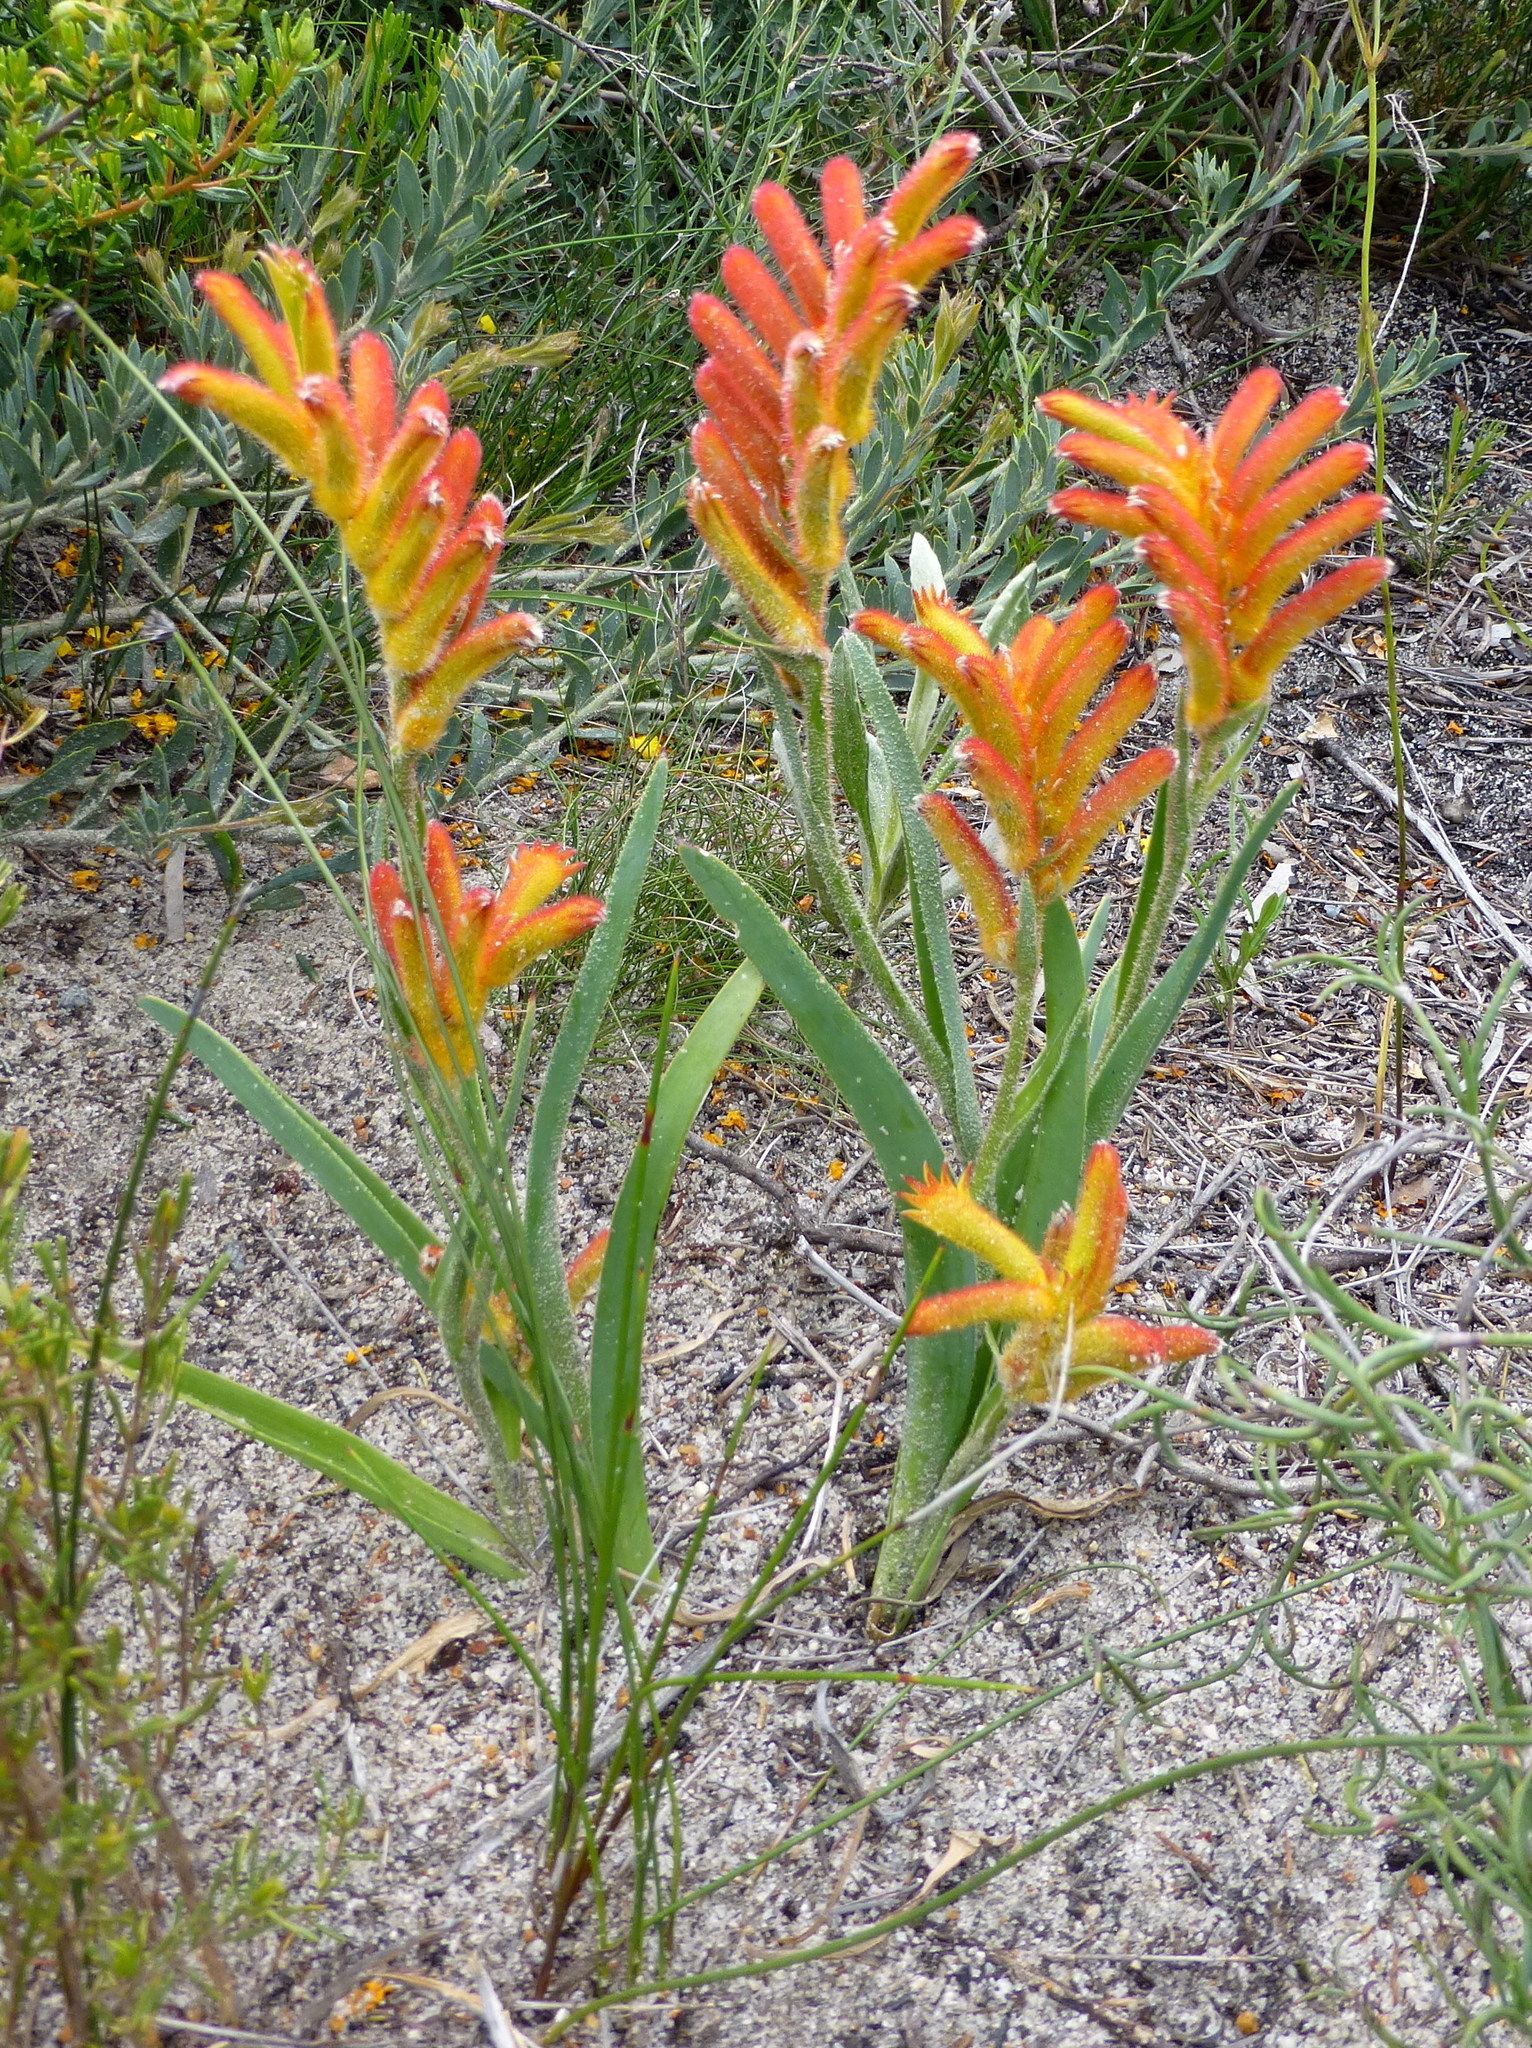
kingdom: Plantae
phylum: Tracheophyta
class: Liliopsida
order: Commelinales
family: Haemodoraceae
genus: Anigozanthos
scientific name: Anigozanthos humilis
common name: Cat's-paw
